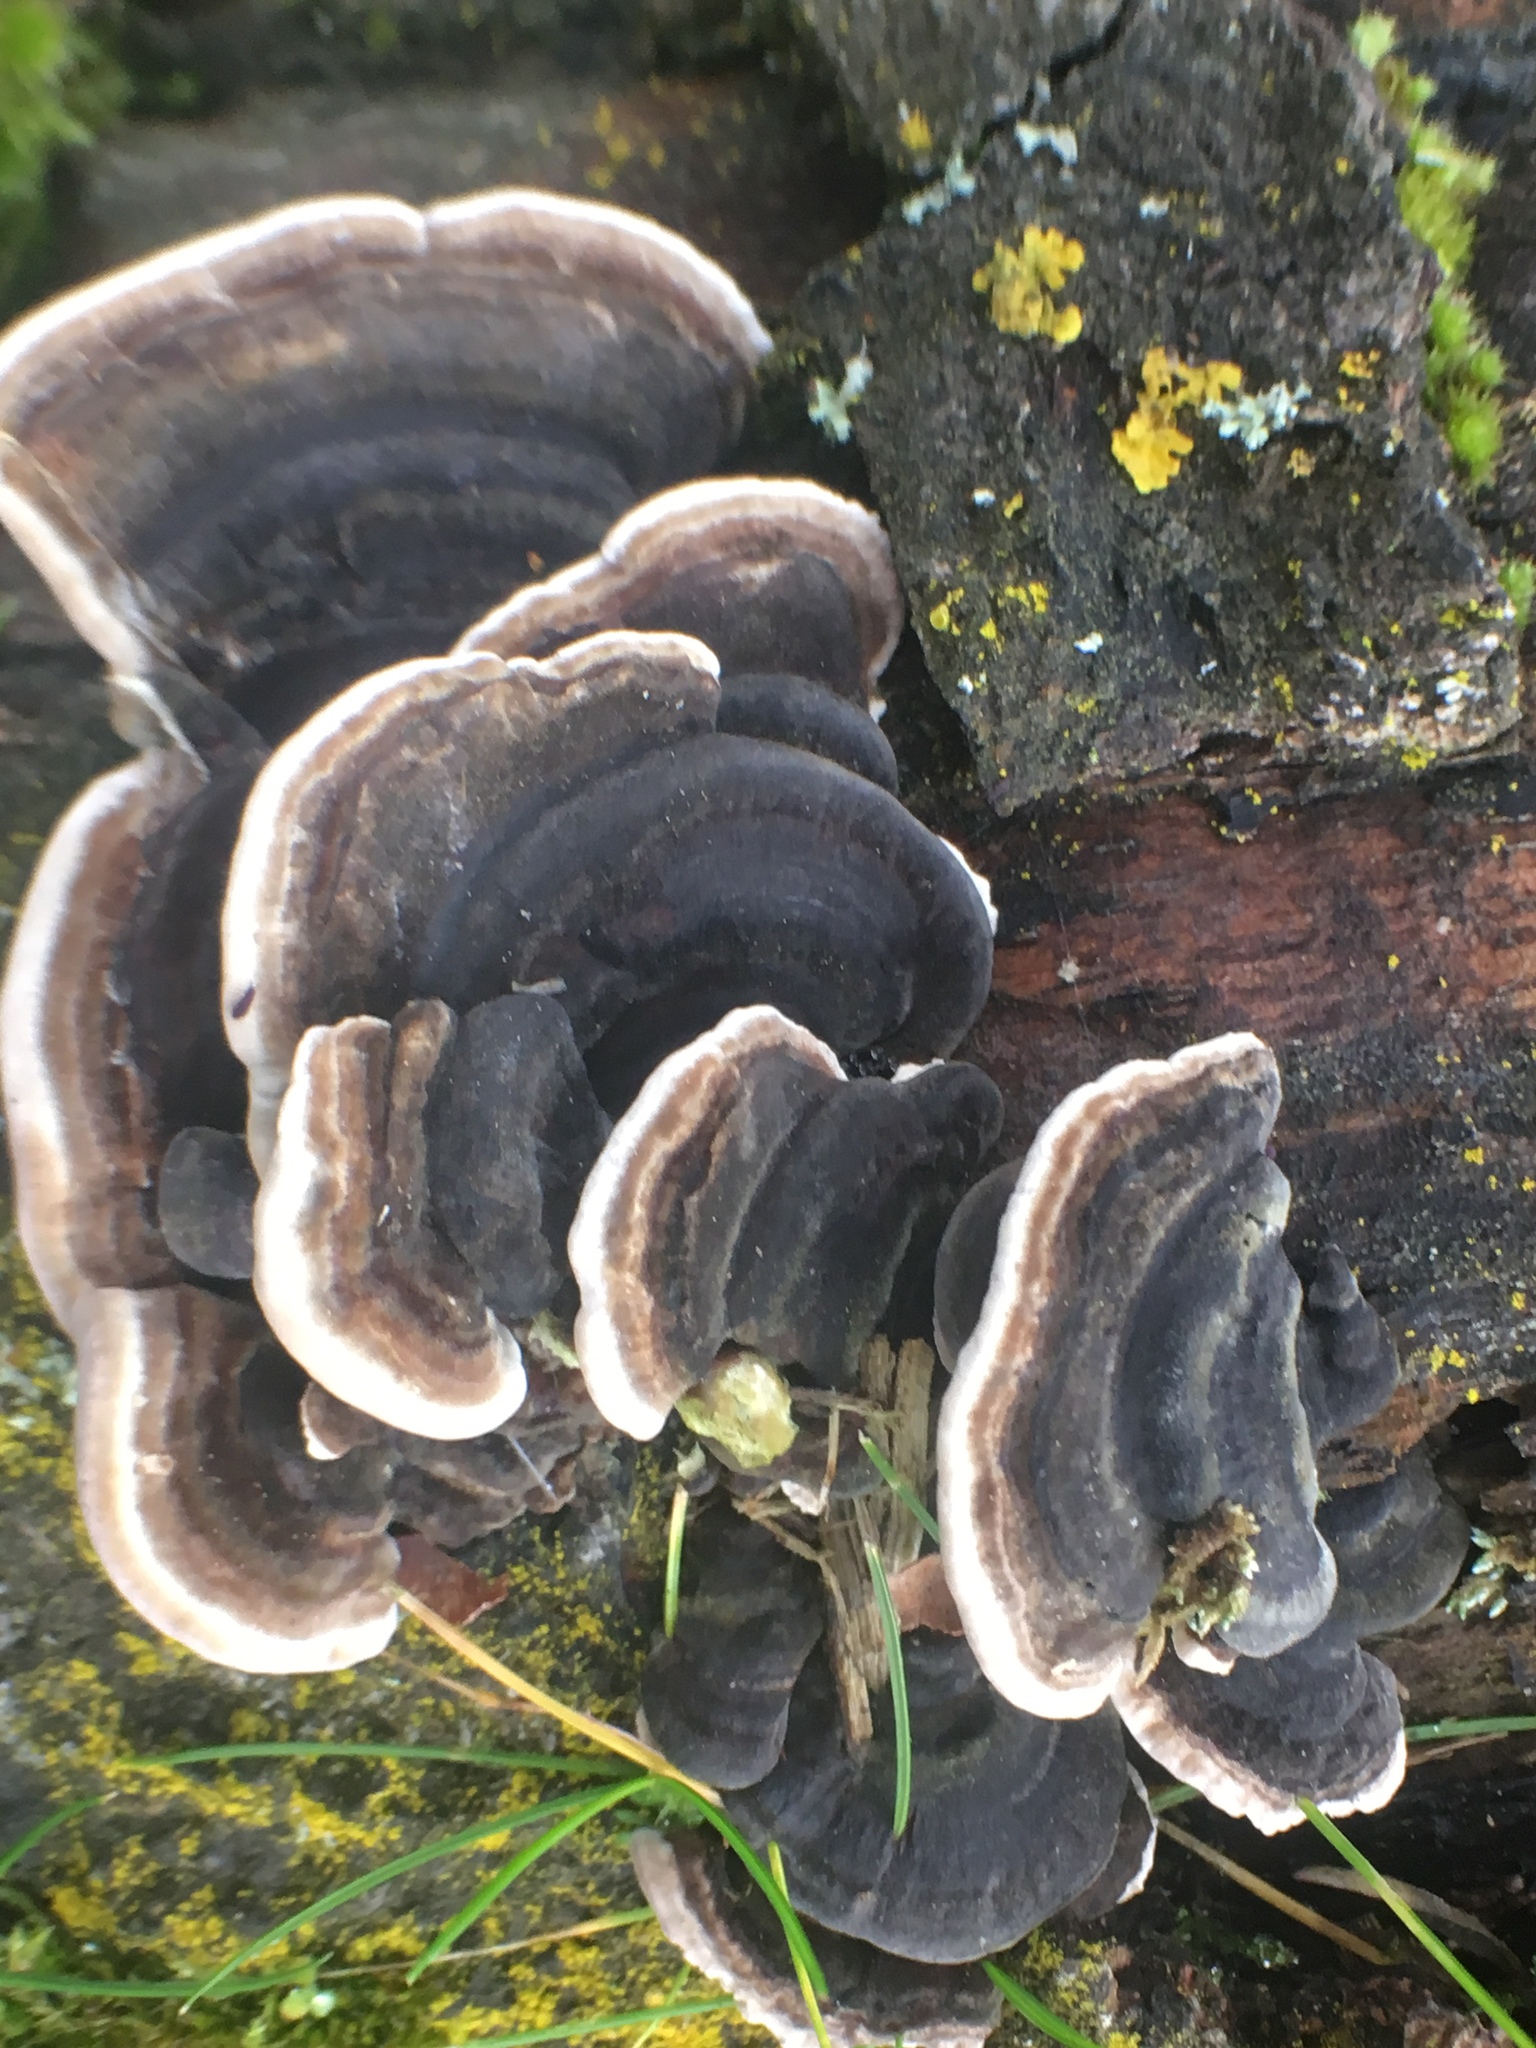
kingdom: Fungi
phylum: Basidiomycota
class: Agaricomycetes
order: Polyporales
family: Polyporaceae
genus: Trametes
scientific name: Trametes versicolor
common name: Turkeytail
